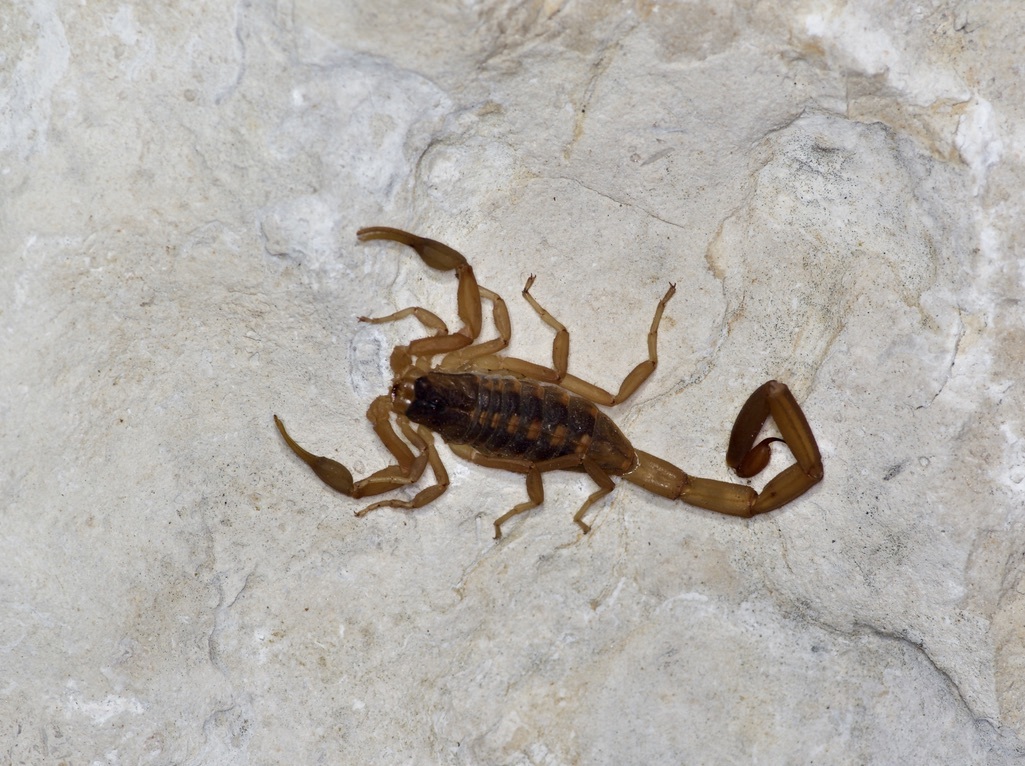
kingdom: Animalia
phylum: Arthropoda
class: Arachnida
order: Scorpiones
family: Buthidae
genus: Centruroides
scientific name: Centruroides vittatus
